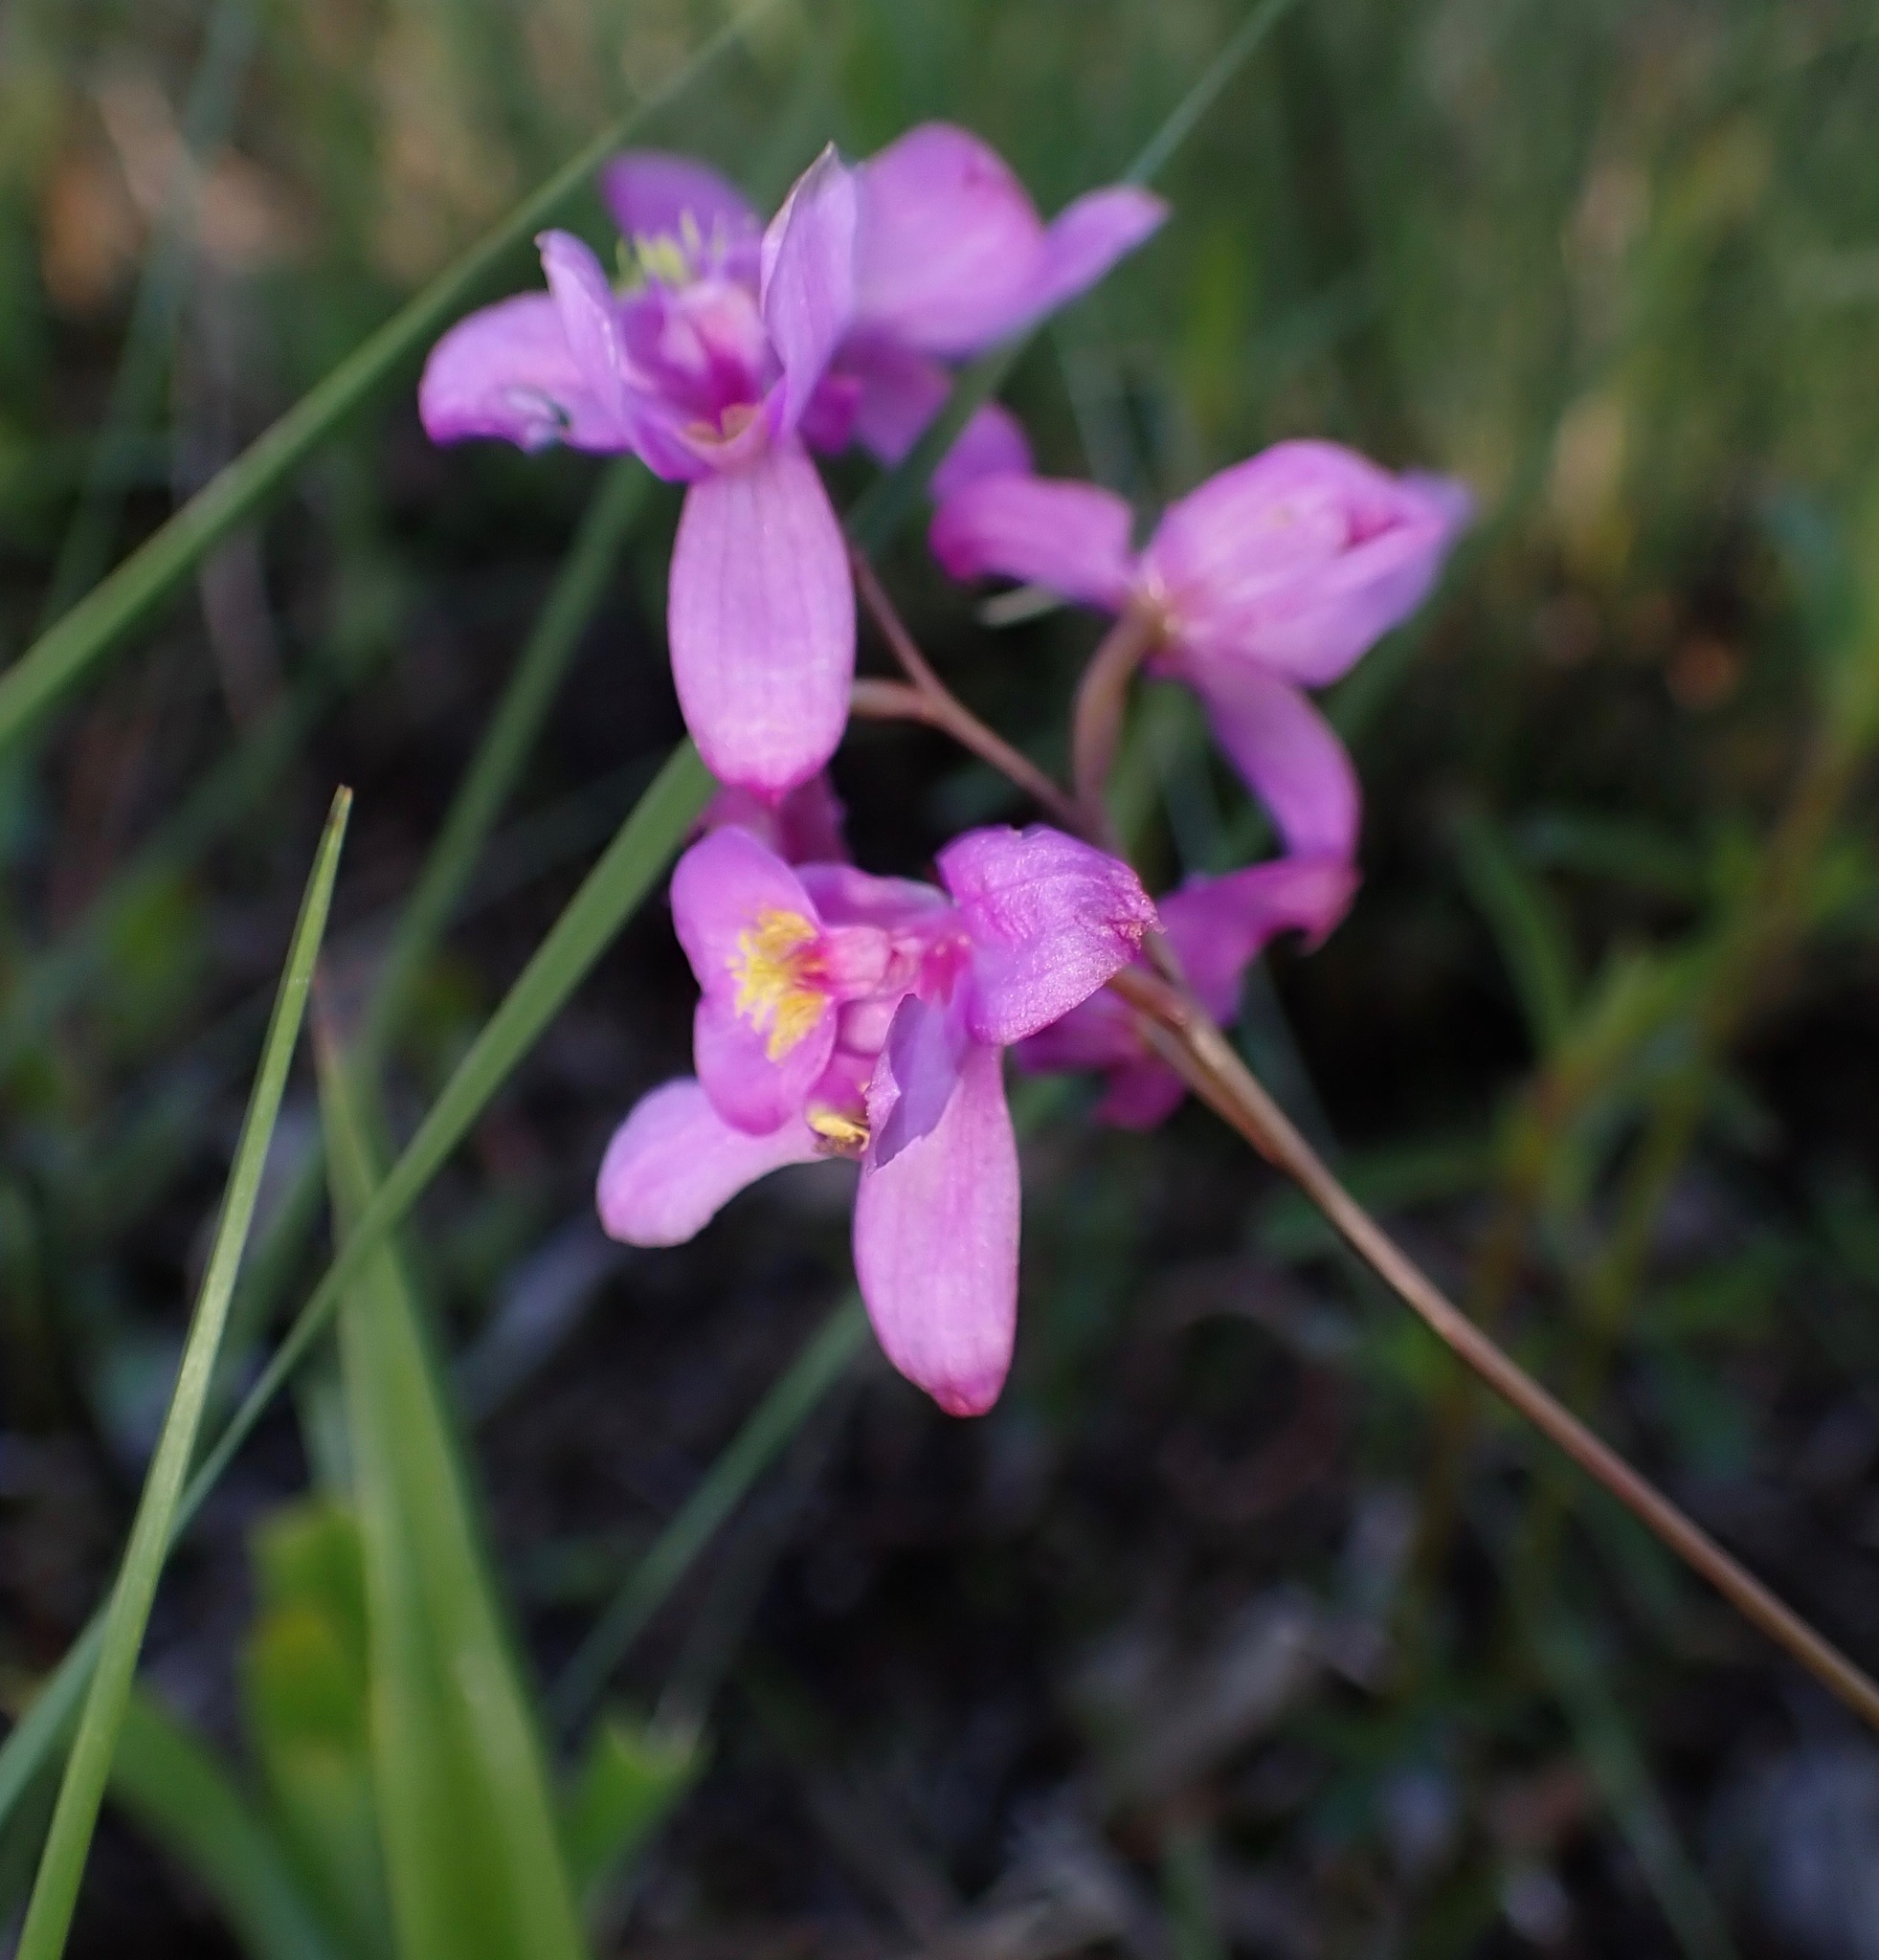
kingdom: Plantae
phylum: Tracheophyta
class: Liliopsida
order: Asparagales
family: Orchidaceae
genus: Calopogon
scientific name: Calopogon barbatus
